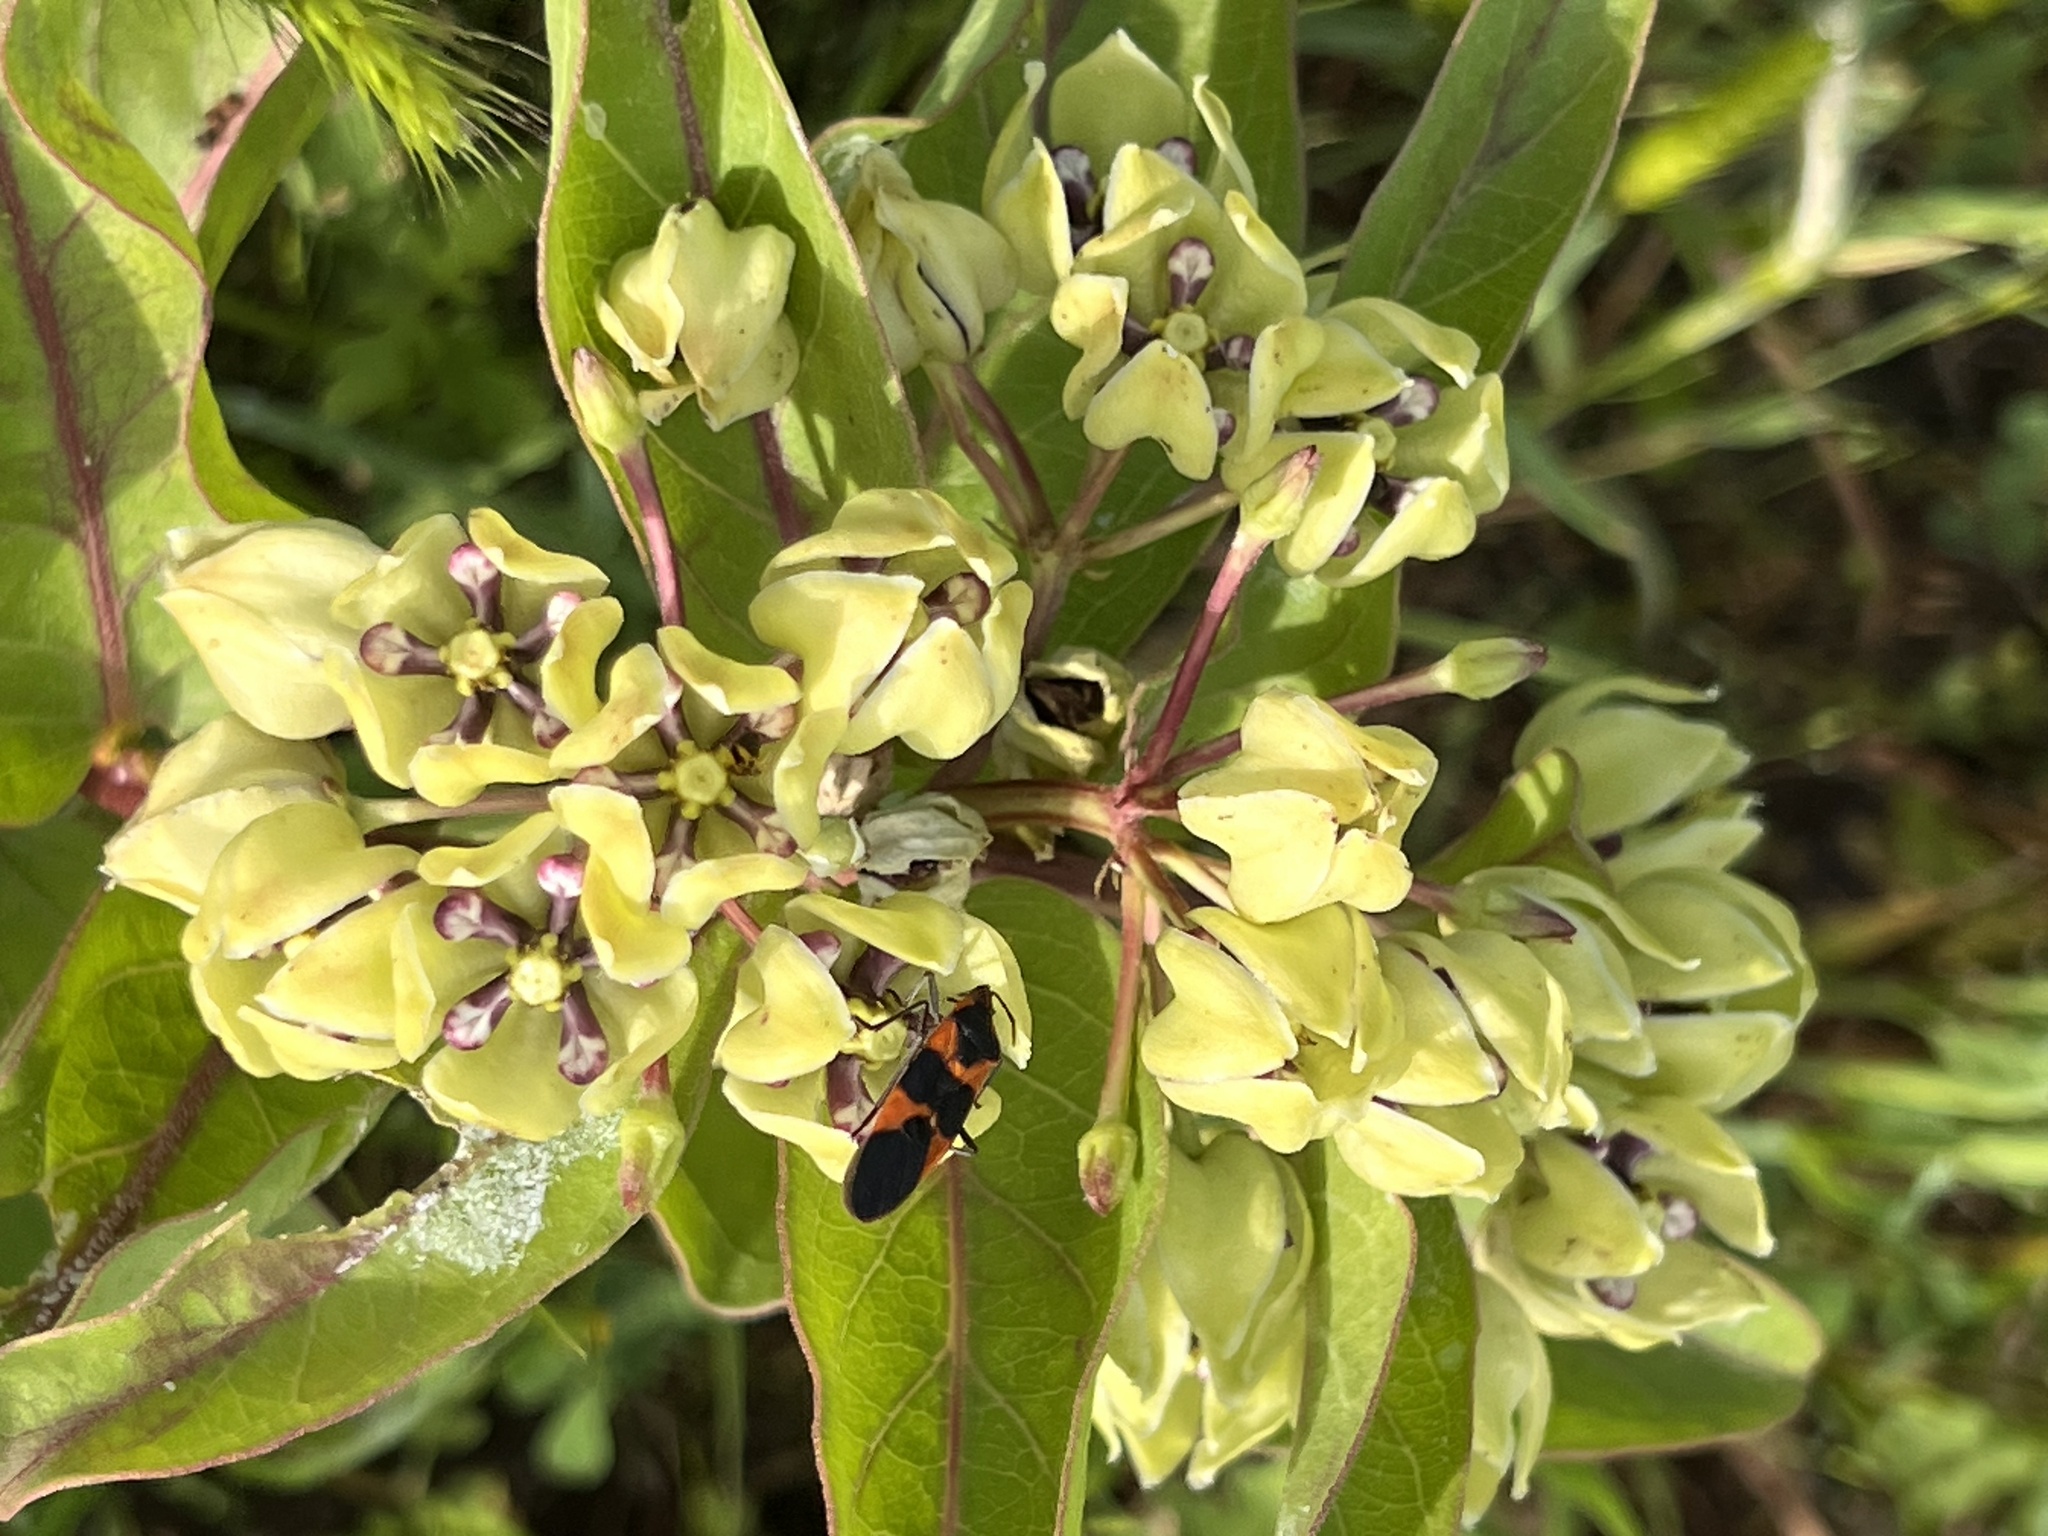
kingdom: Plantae
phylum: Tracheophyta
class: Magnoliopsida
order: Gentianales
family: Apocynaceae
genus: Asclepias
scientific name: Asclepias viridis
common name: Antelope-horns
